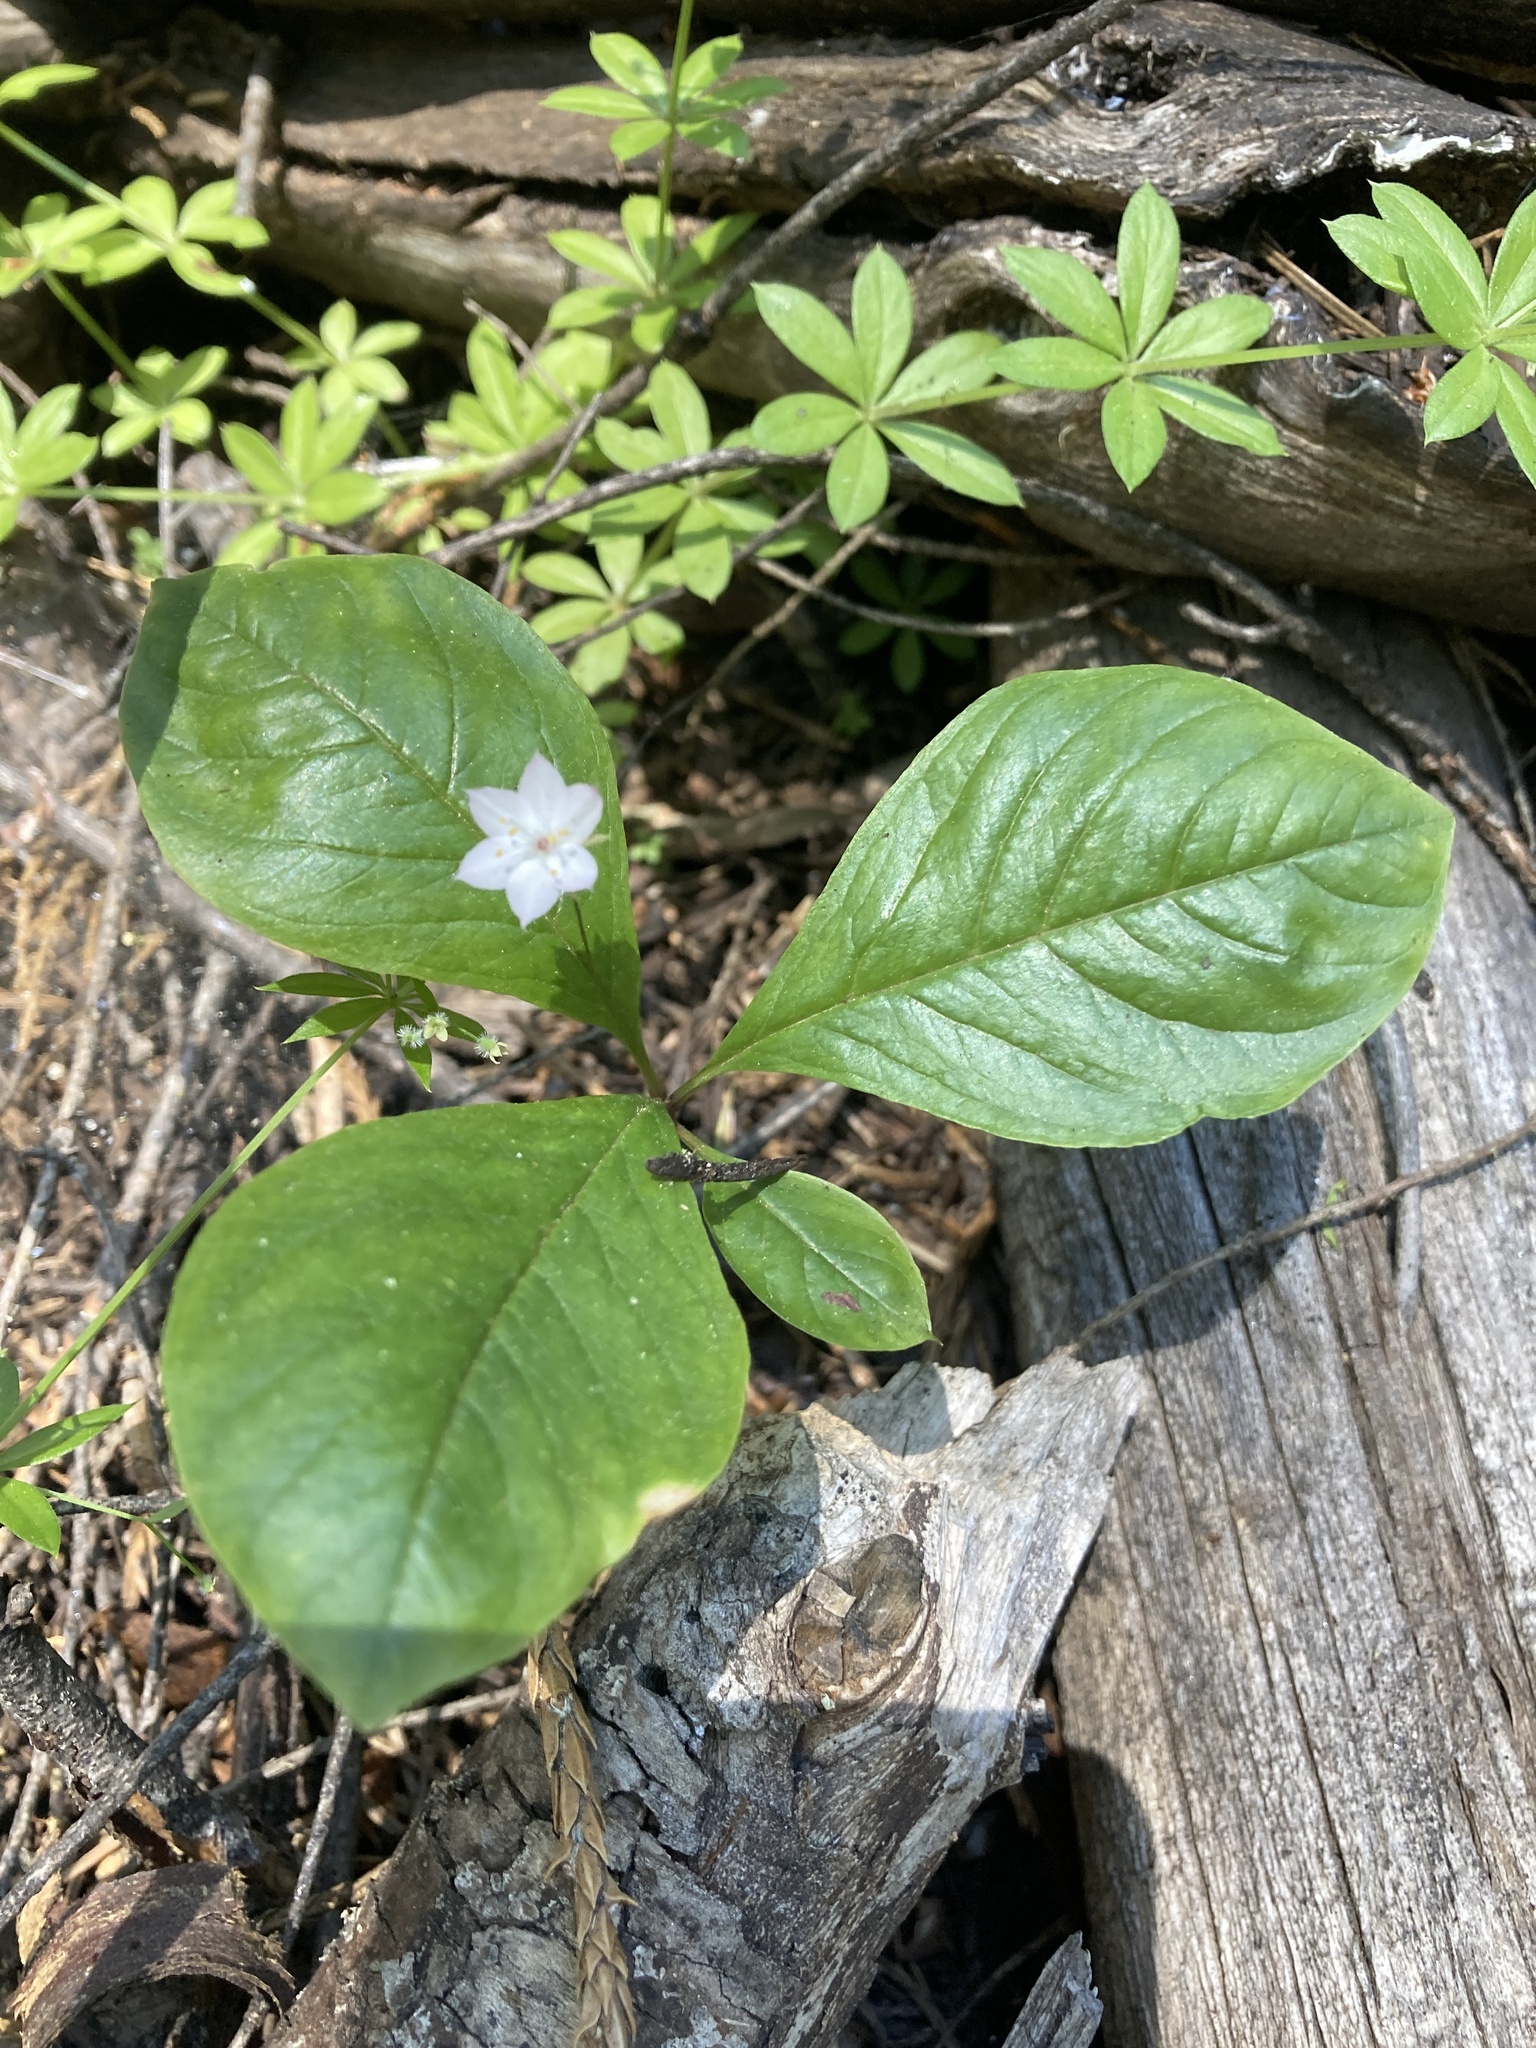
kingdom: Plantae
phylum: Tracheophyta
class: Magnoliopsida
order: Ericales
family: Primulaceae
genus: Lysimachia
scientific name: Lysimachia latifolia
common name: Pacific starflower
